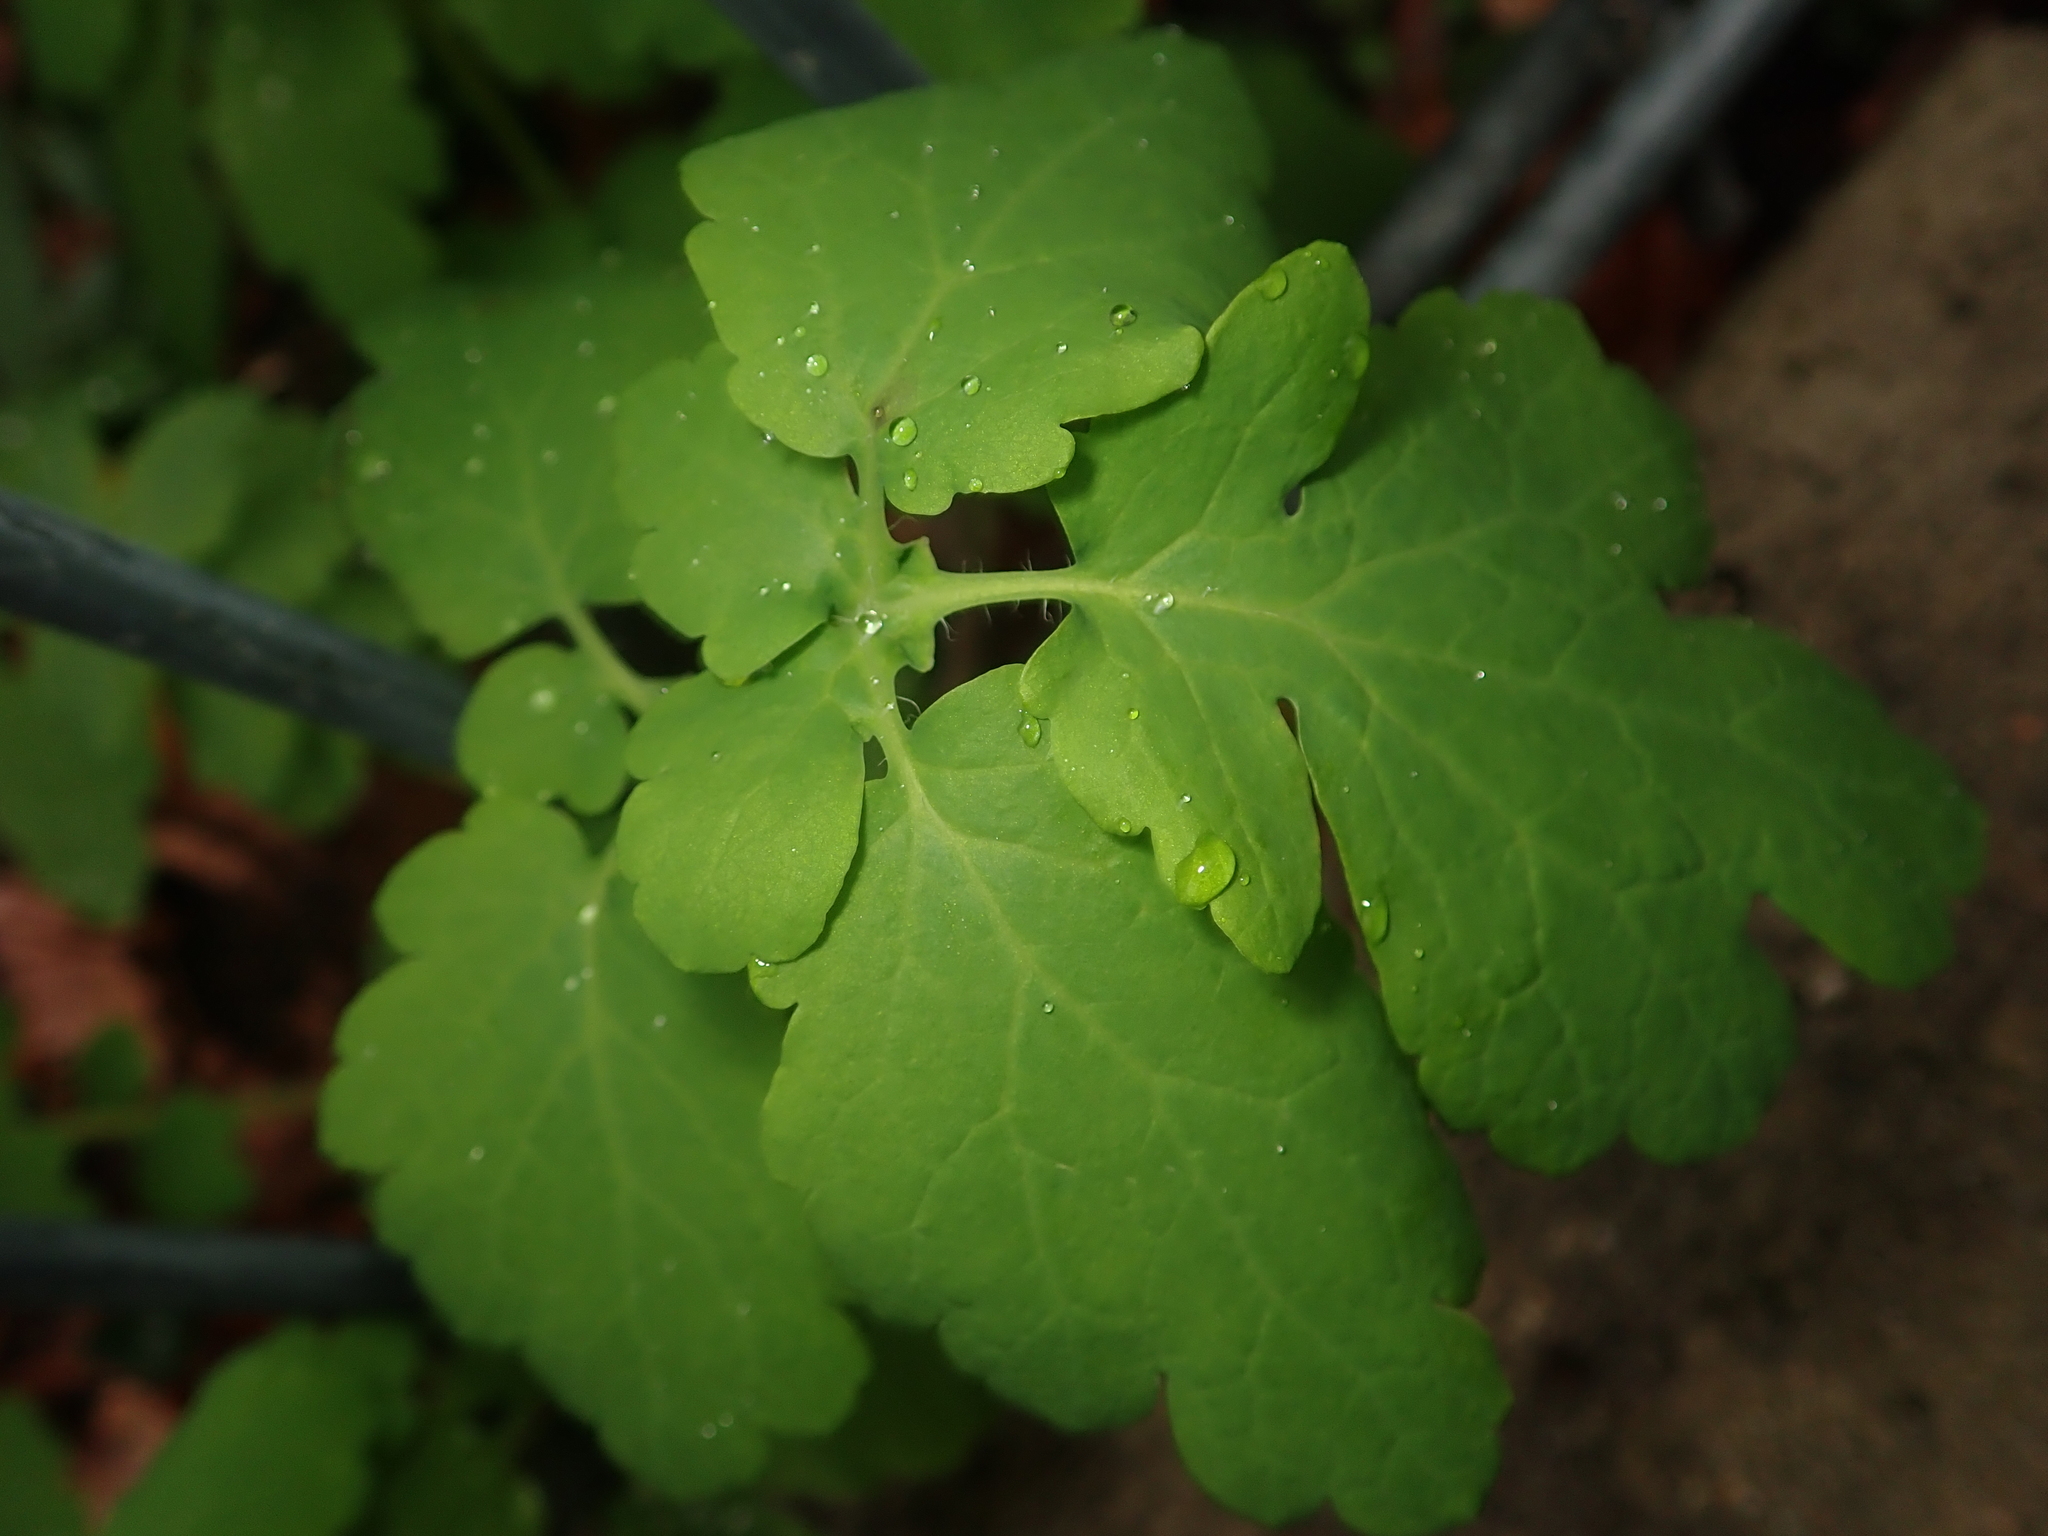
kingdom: Plantae
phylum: Tracheophyta
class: Magnoliopsida
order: Ranunculales
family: Papaveraceae
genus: Chelidonium
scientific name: Chelidonium majus
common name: Greater celandine
